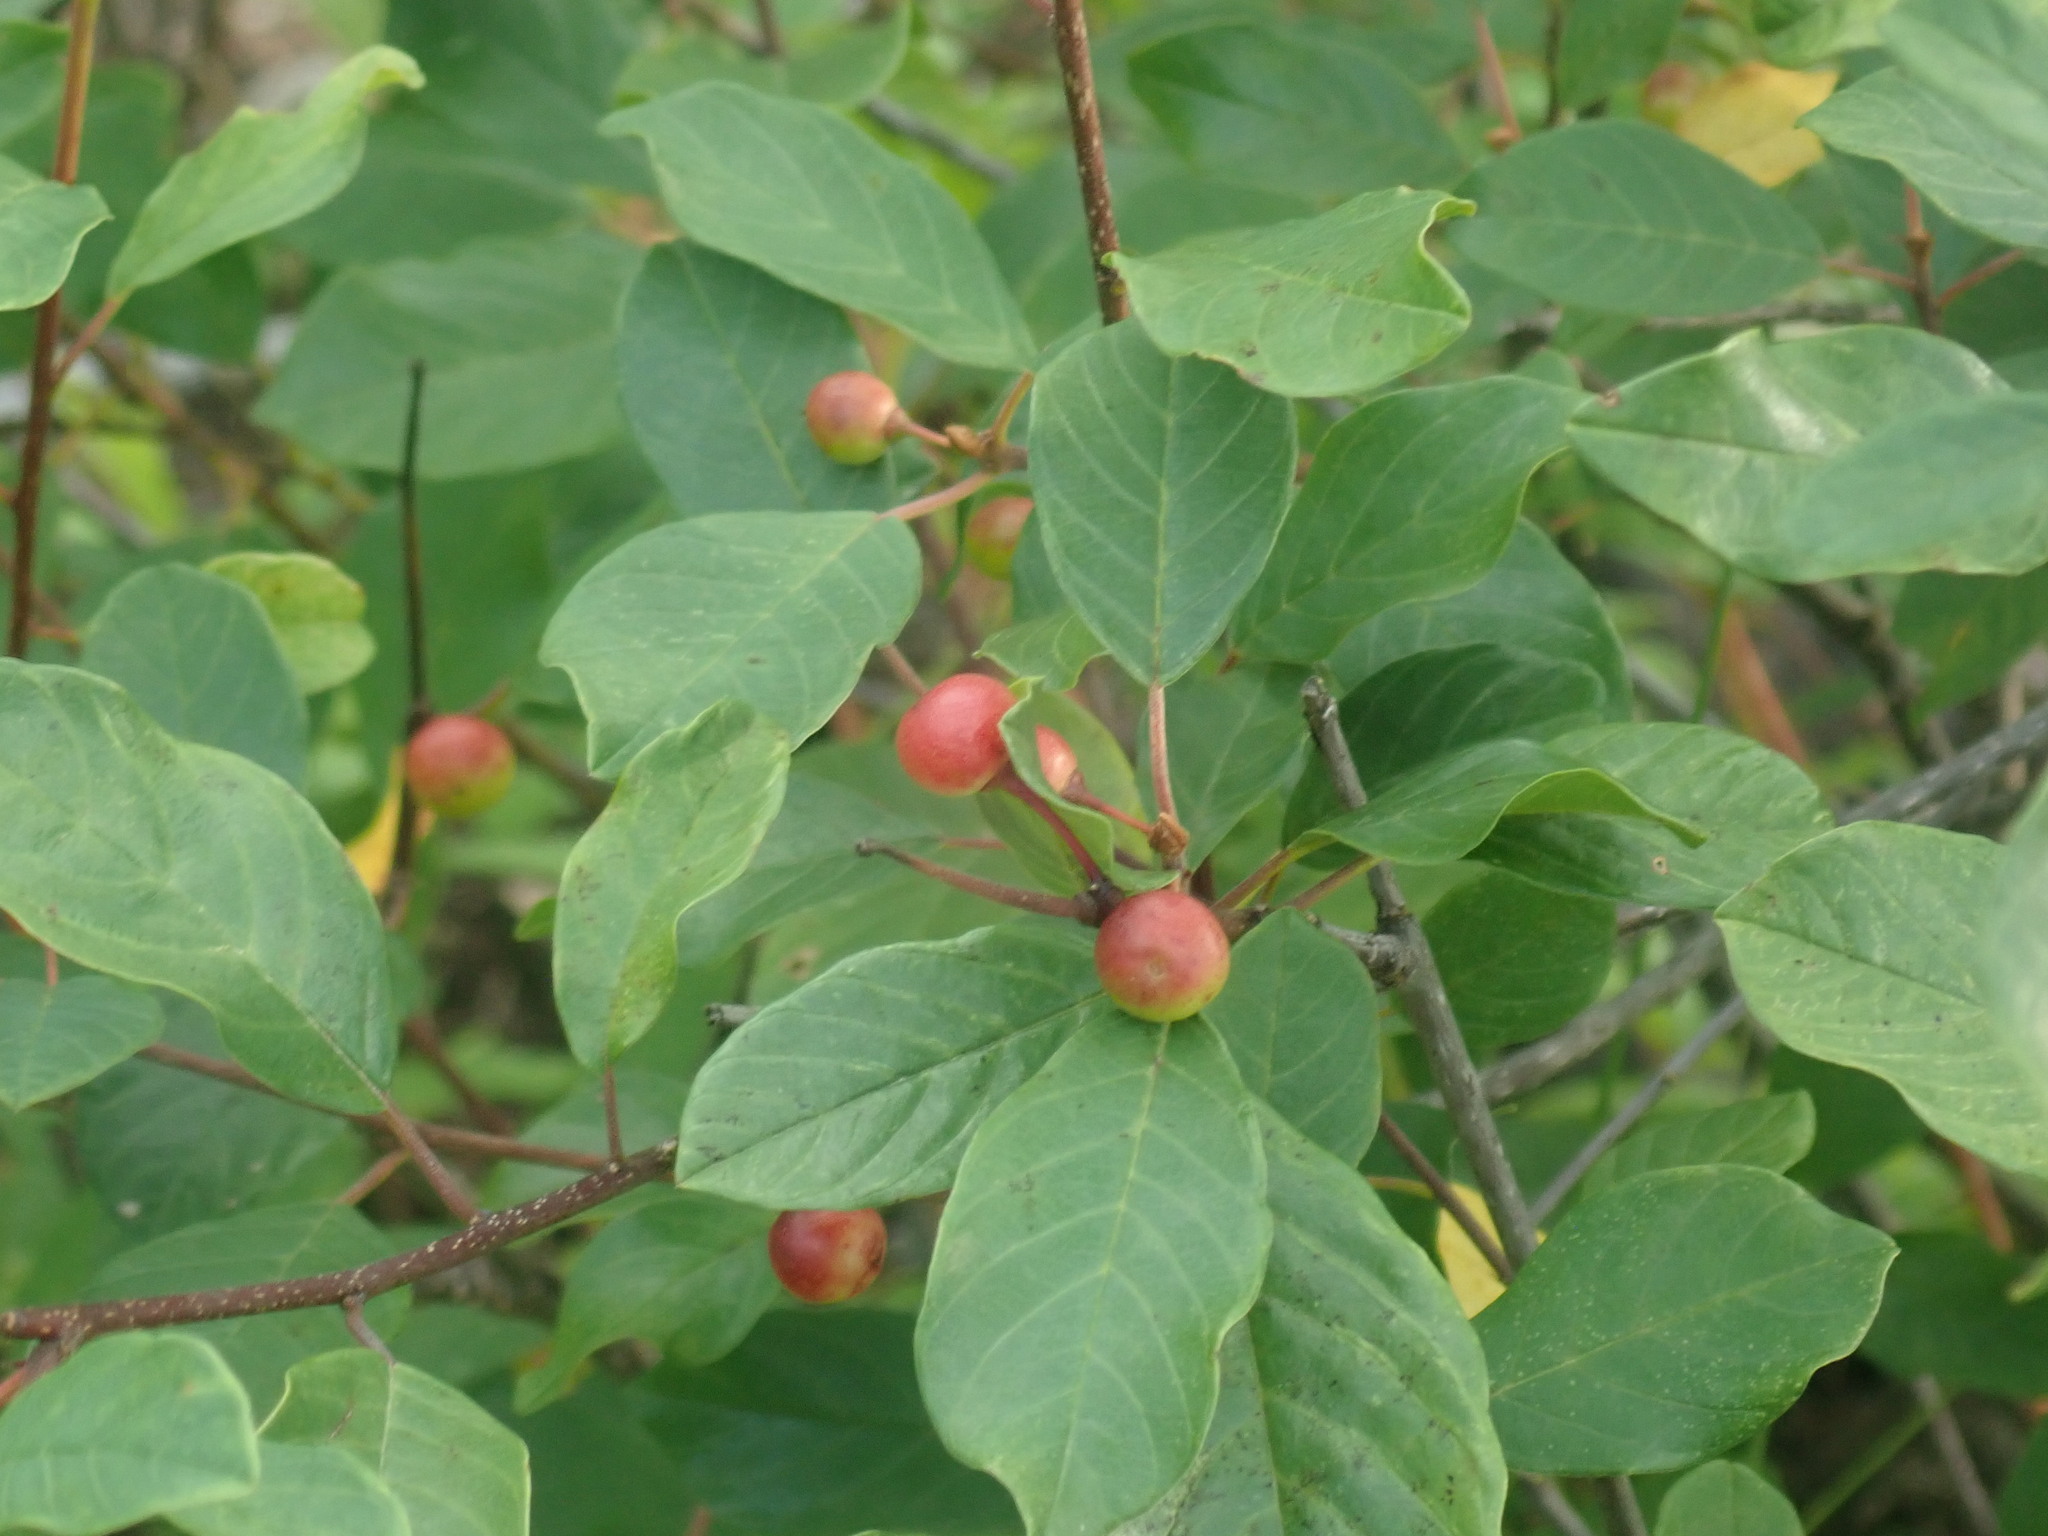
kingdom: Plantae
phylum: Tracheophyta
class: Magnoliopsida
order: Rosales
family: Rhamnaceae
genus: Frangula
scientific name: Frangula alnus
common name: Alder buckthorn
